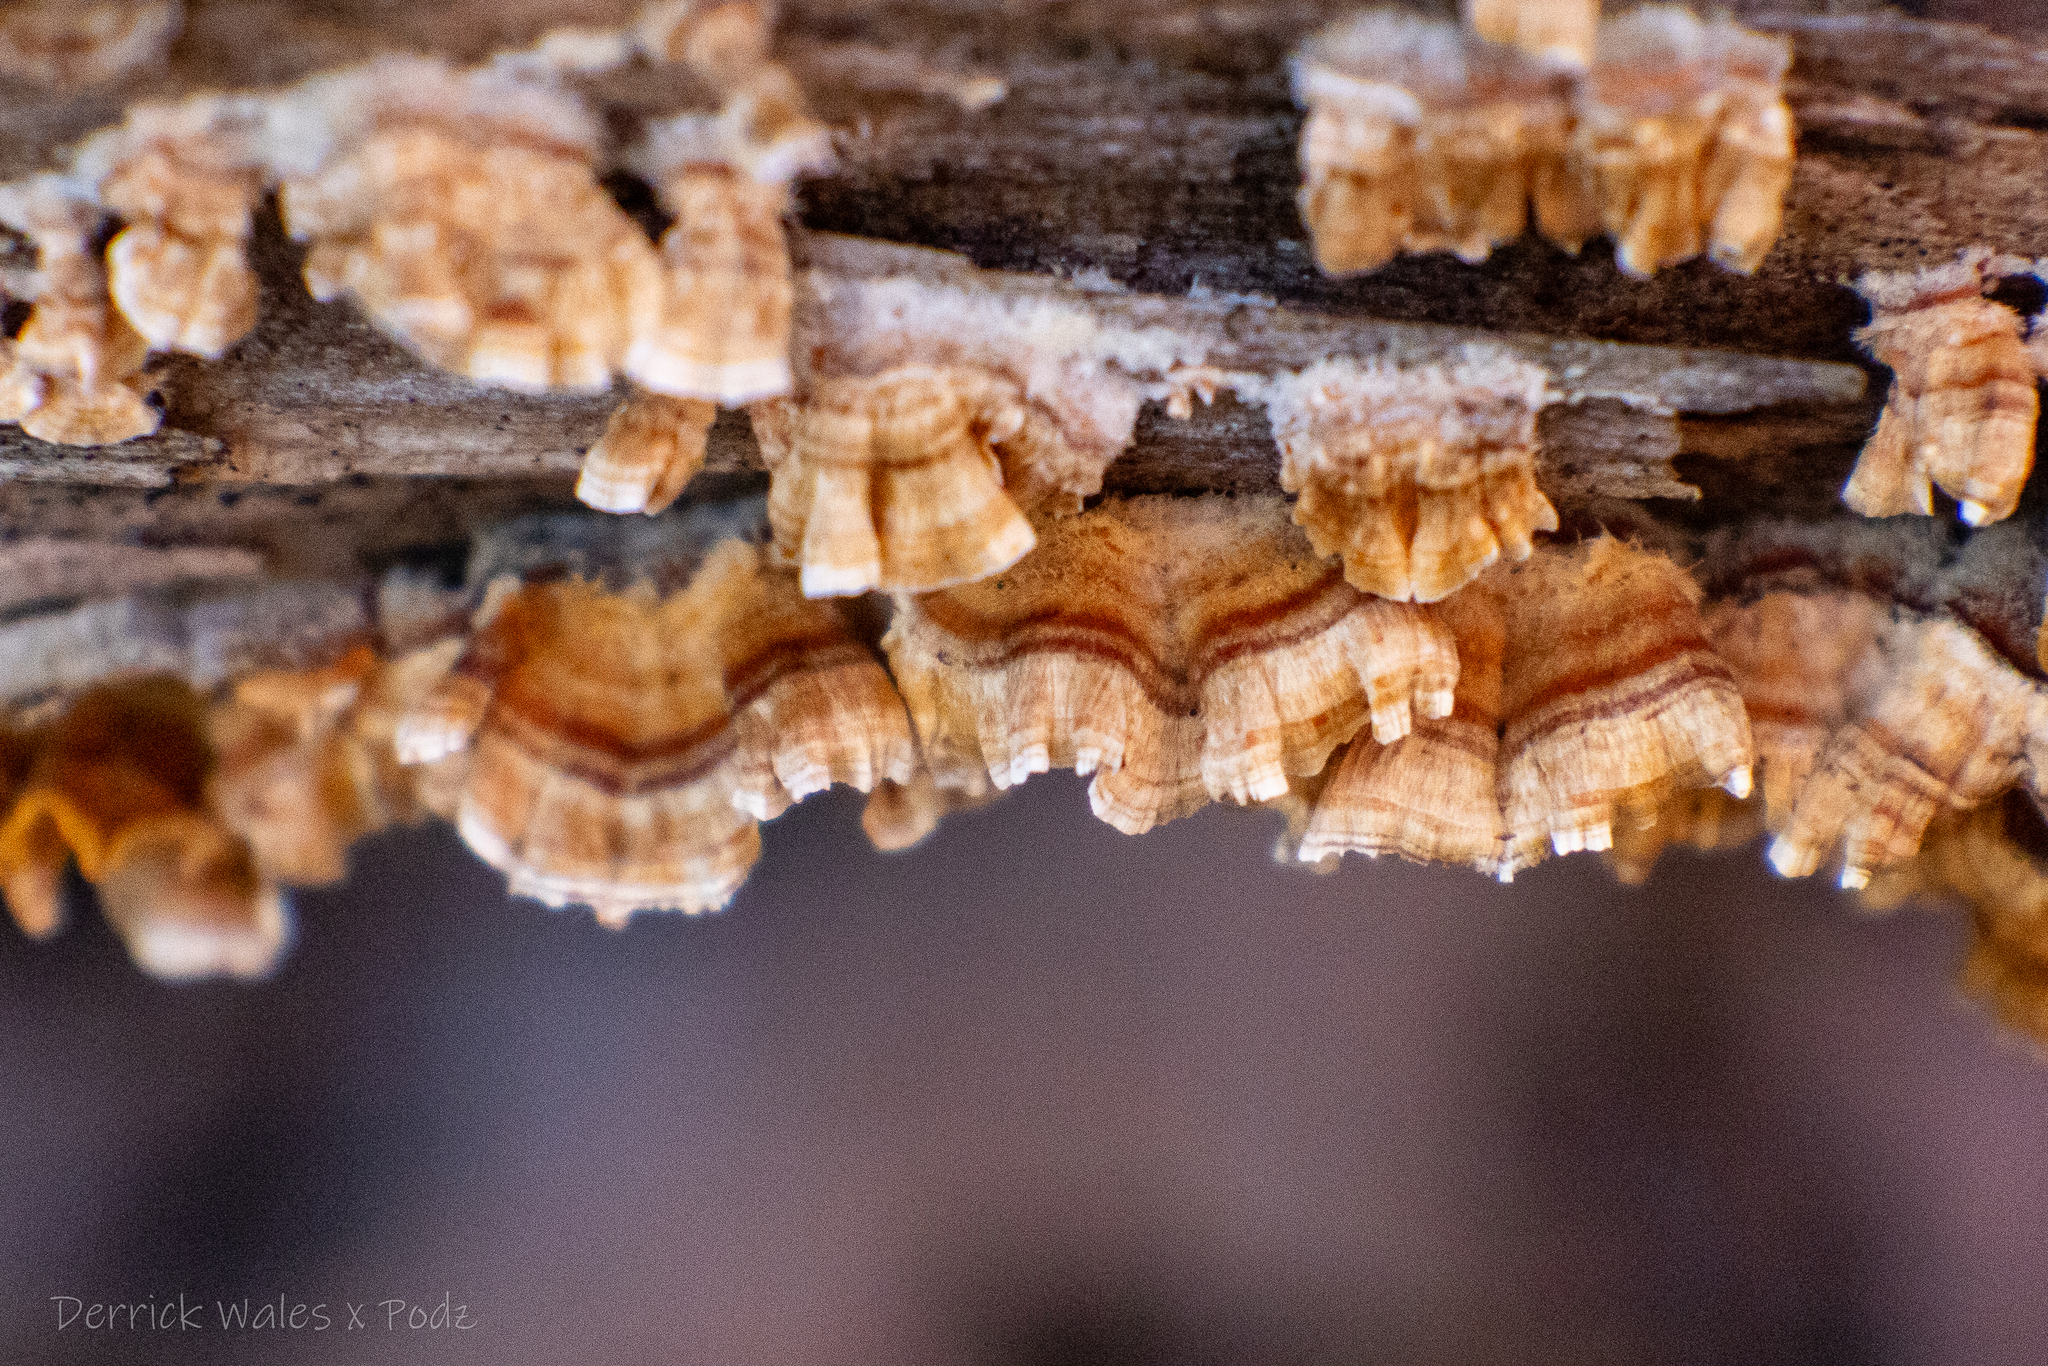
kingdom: Fungi
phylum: Basidiomycota
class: Agaricomycetes
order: Russulales
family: Stereaceae
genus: Stereum
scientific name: Stereum complicatum
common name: Crowded parchment
